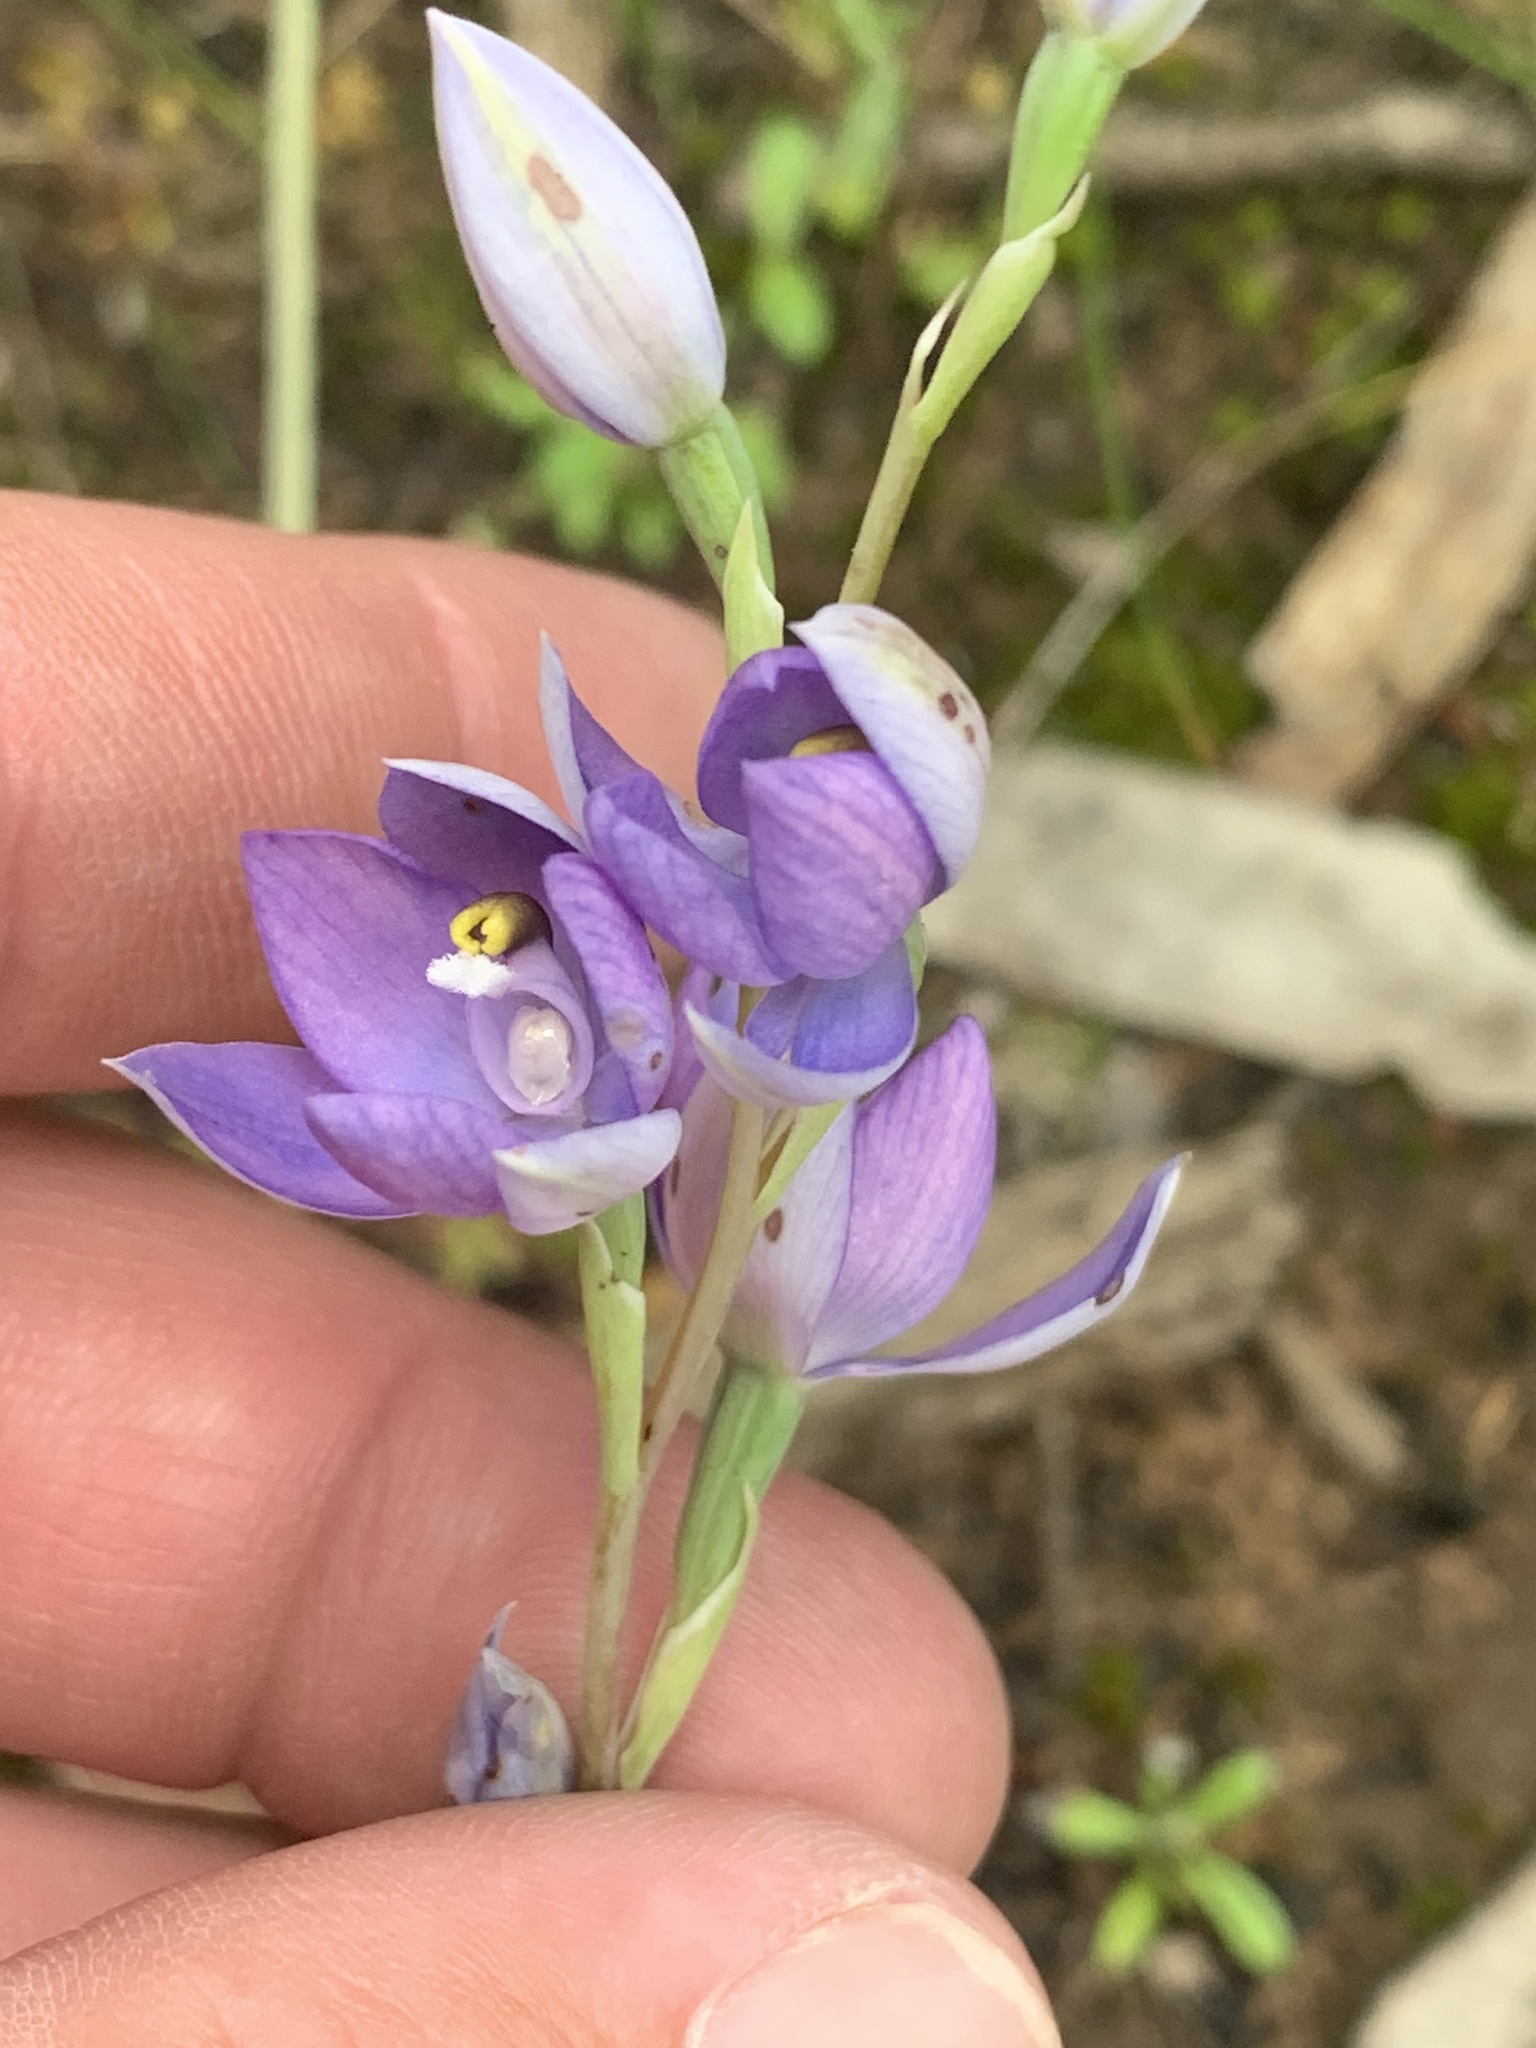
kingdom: Plantae
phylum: Tracheophyta
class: Liliopsida
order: Asparagales
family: Orchidaceae
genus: Thelymitra
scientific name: Thelymitra megcalyptra
